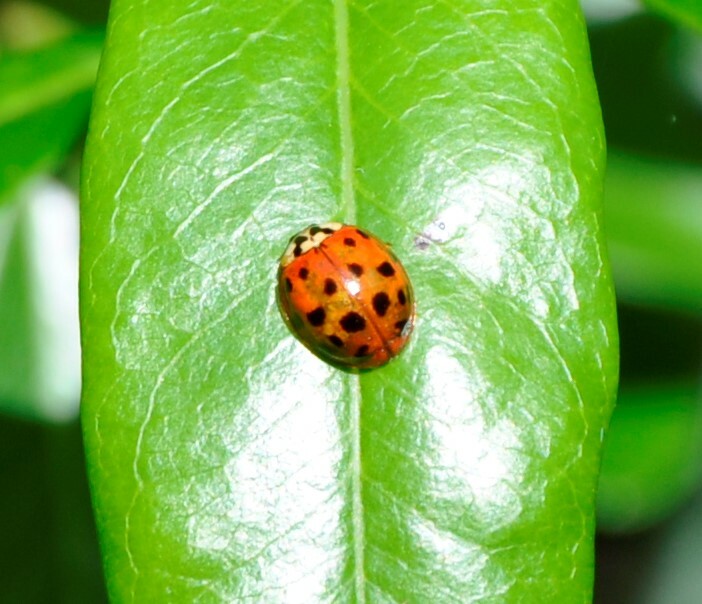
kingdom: Animalia
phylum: Arthropoda
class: Insecta
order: Coleoptera
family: Coccinellidae
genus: Harmonia
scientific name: Harmonia axyridis
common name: Harlequin ladybird
